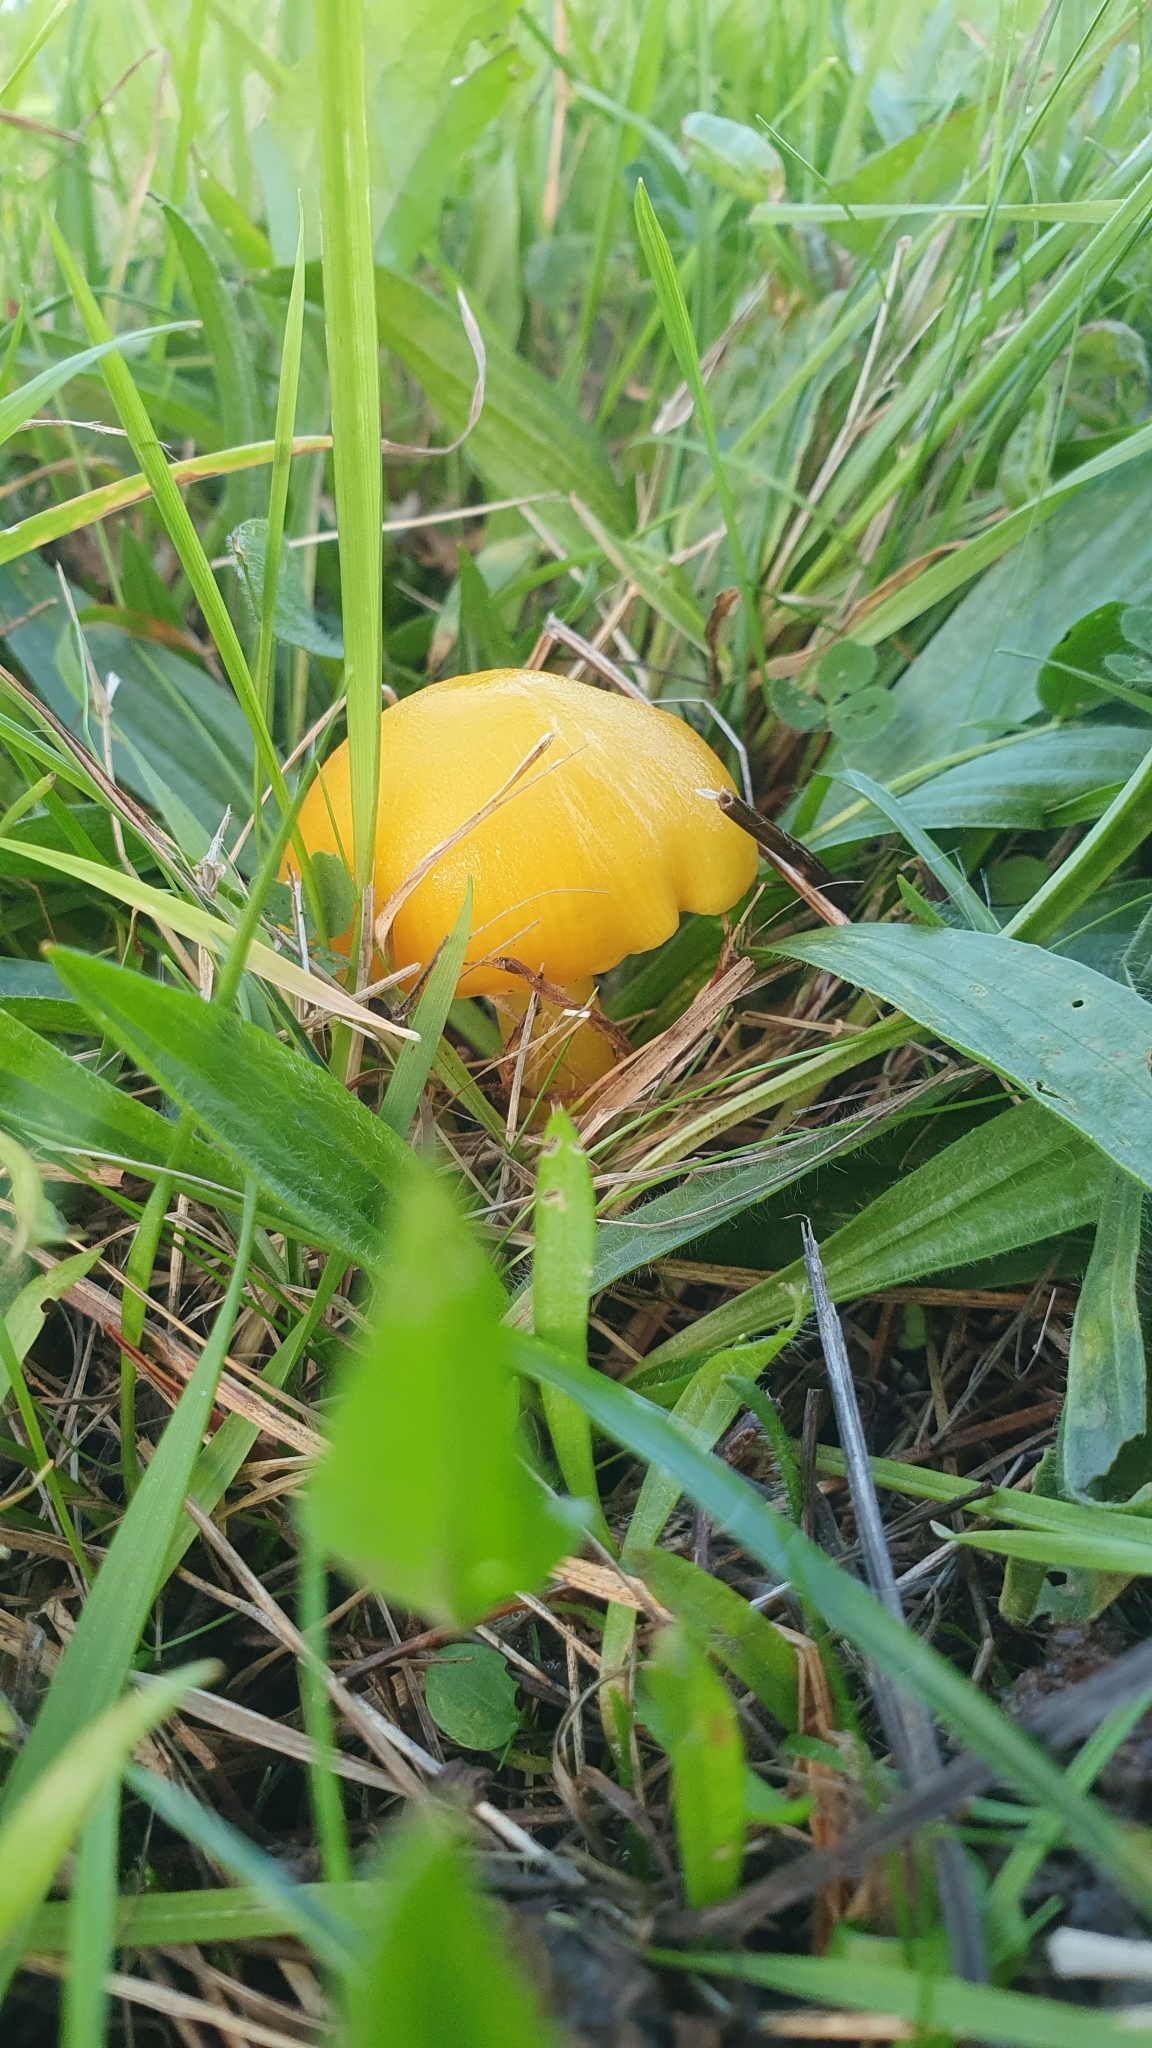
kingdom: Fungi
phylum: Basidiomycota
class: Agaricomycetes
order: Agaricales
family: Hygrophoraceae
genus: Hygrocybe
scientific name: Hygrocybe chlorophana
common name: Golden waxcap
